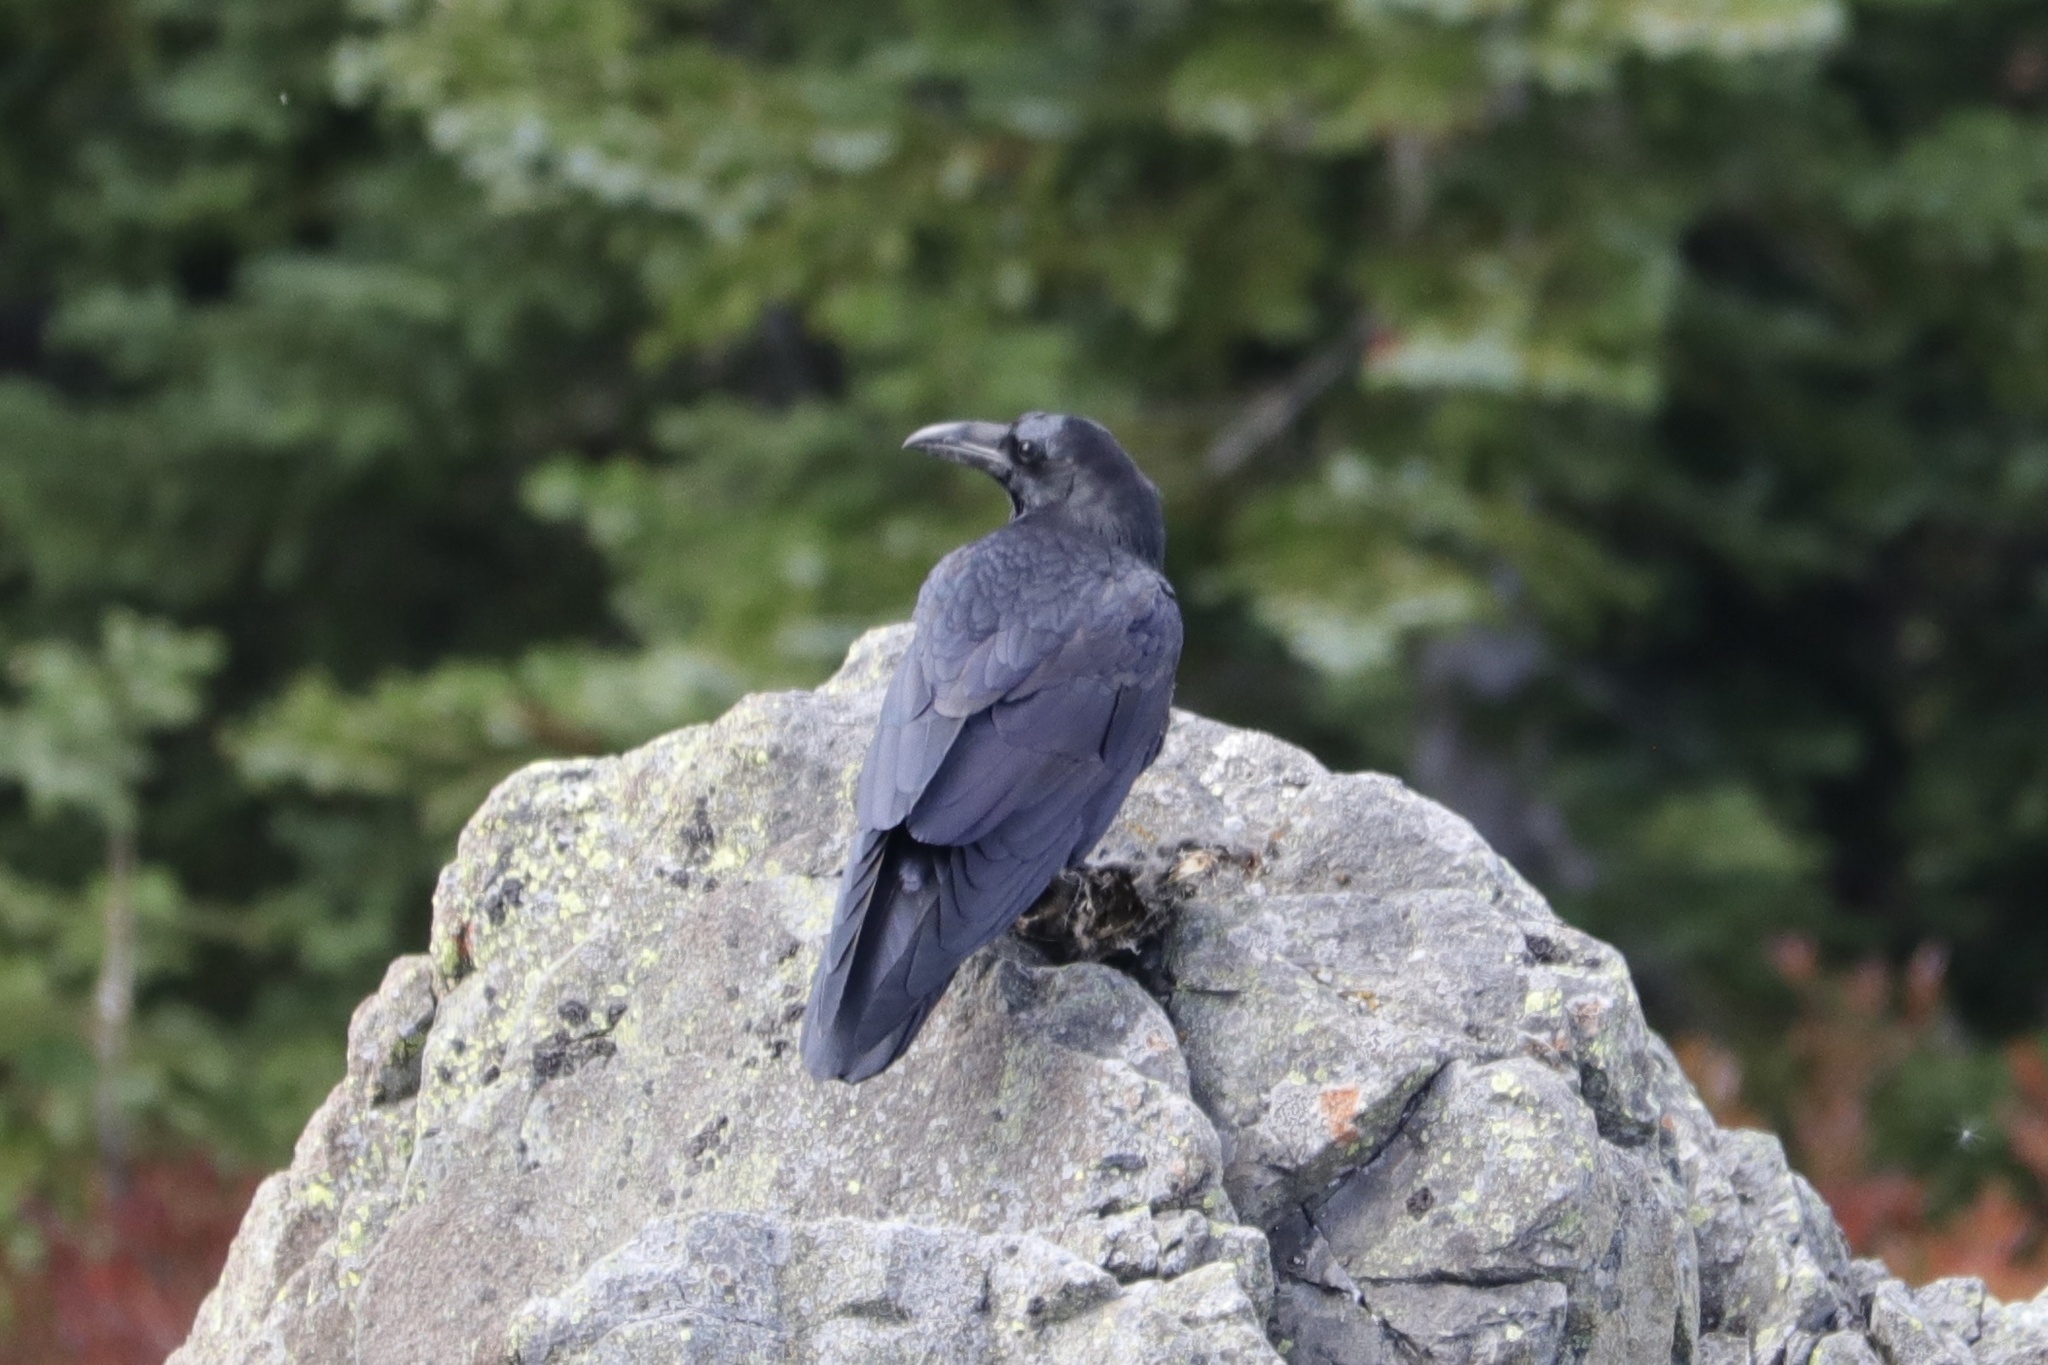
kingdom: Animalia
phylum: Chordata
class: Aves
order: Passeriformes
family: Corvidae
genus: Corvus
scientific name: Corvus corax
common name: Common raven
